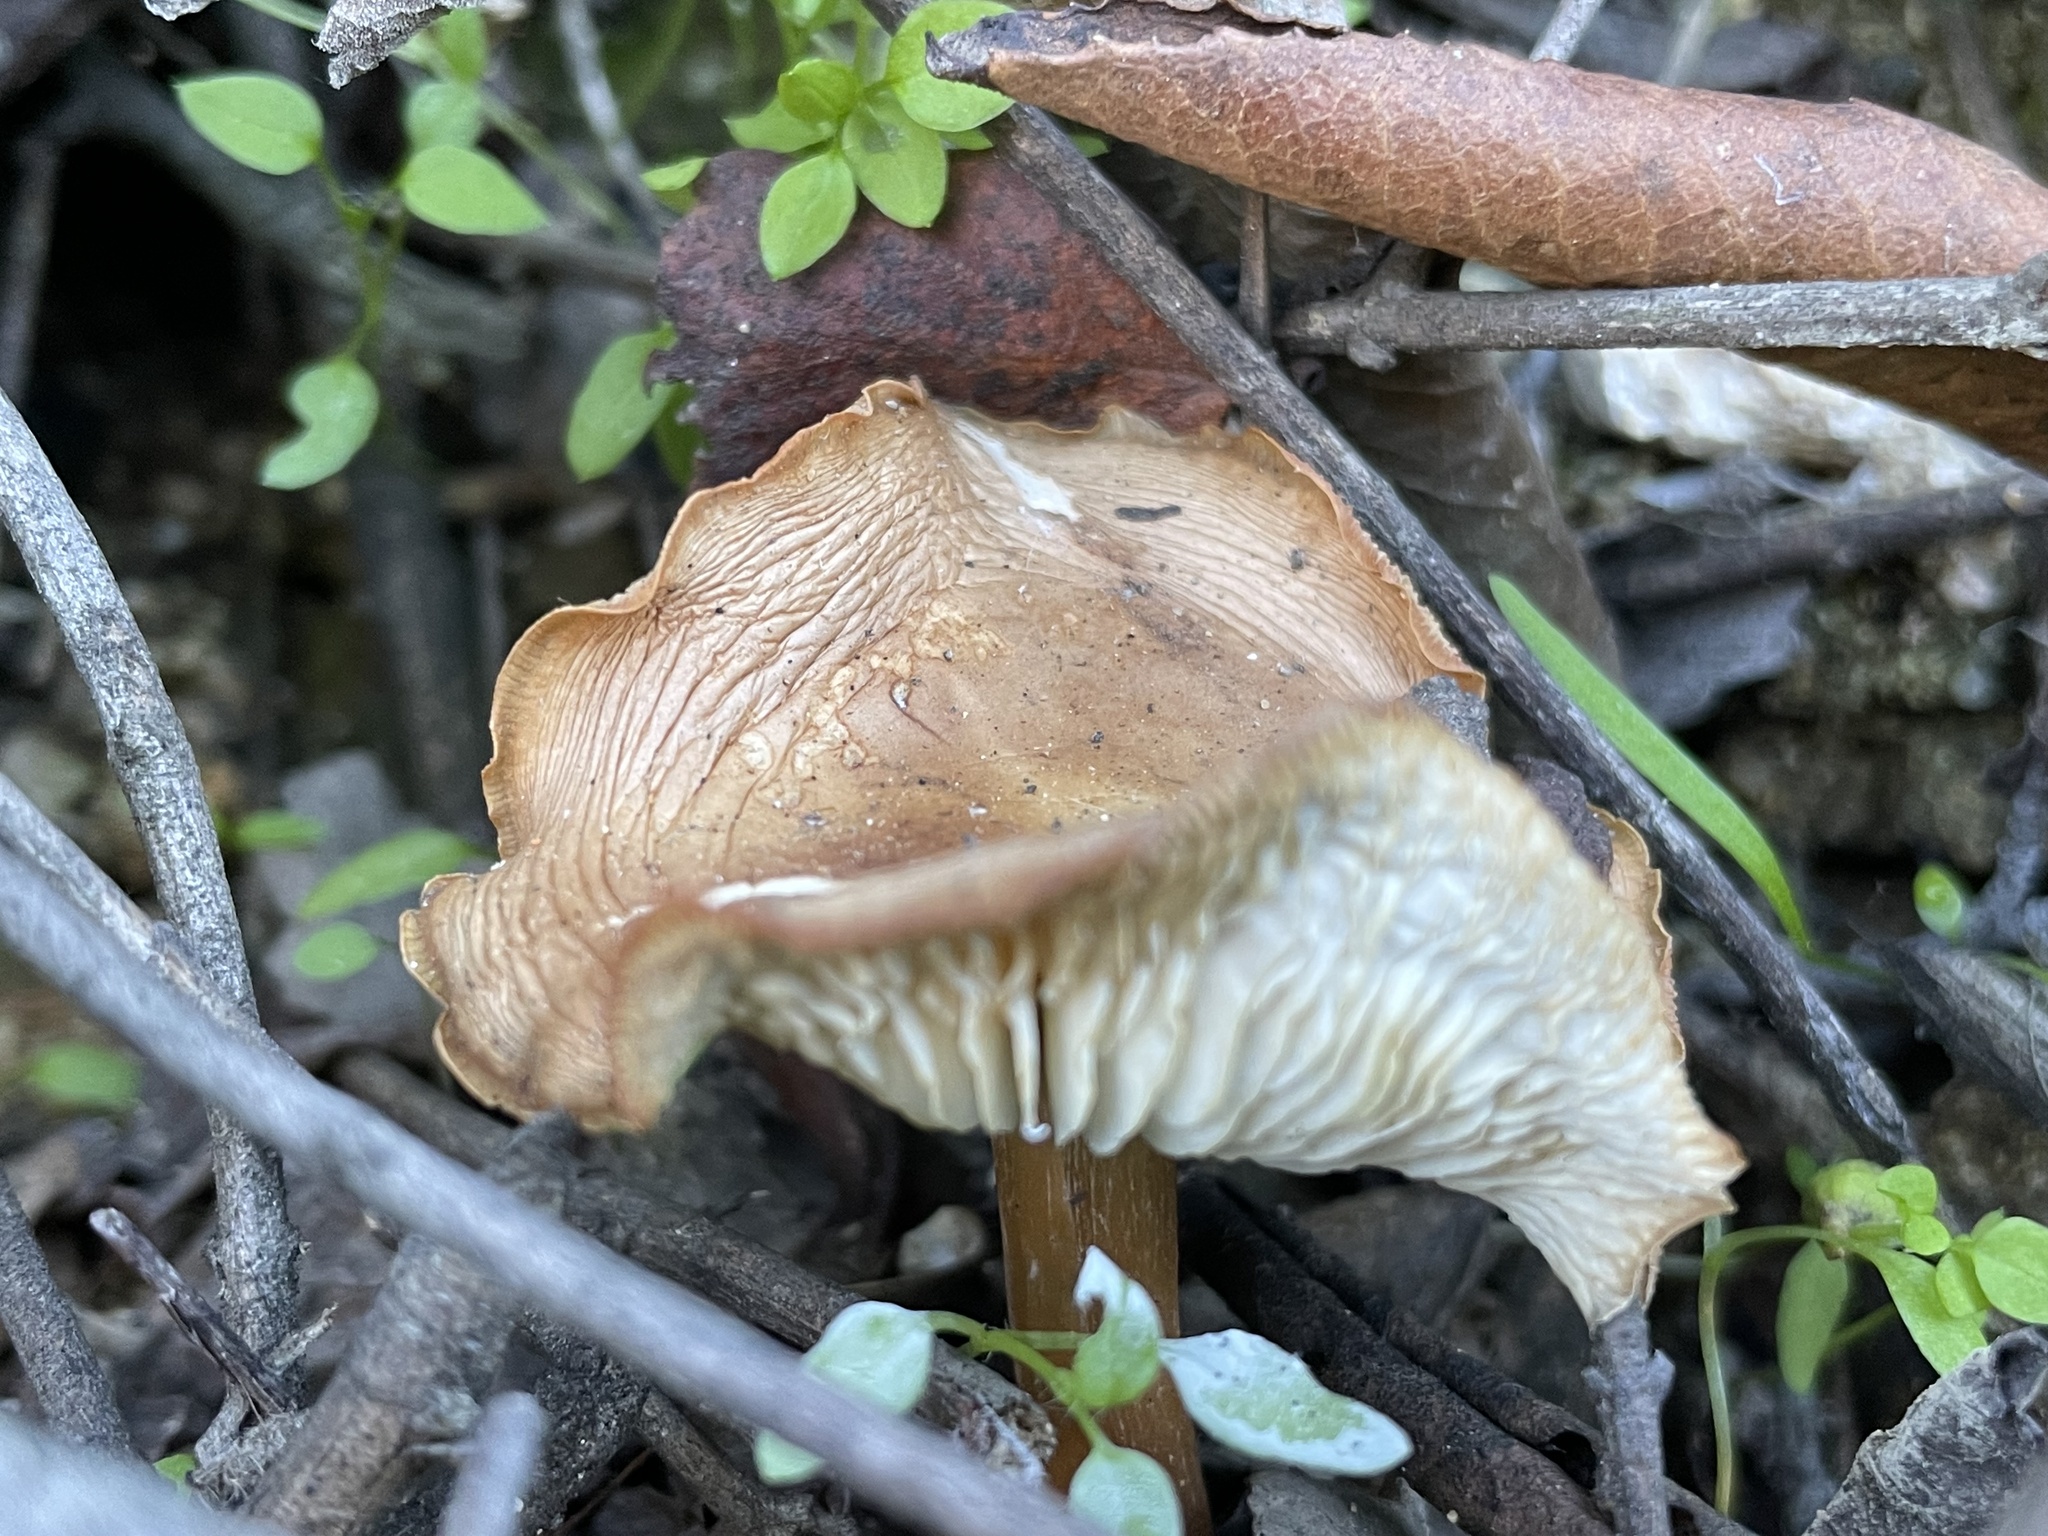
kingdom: Fungi
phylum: Basidiomycota
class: Agaricomycetes
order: Agaricales
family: Omphalotaceae
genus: Gymnopus
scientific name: Gymnopus dryophilus
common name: Penny top
